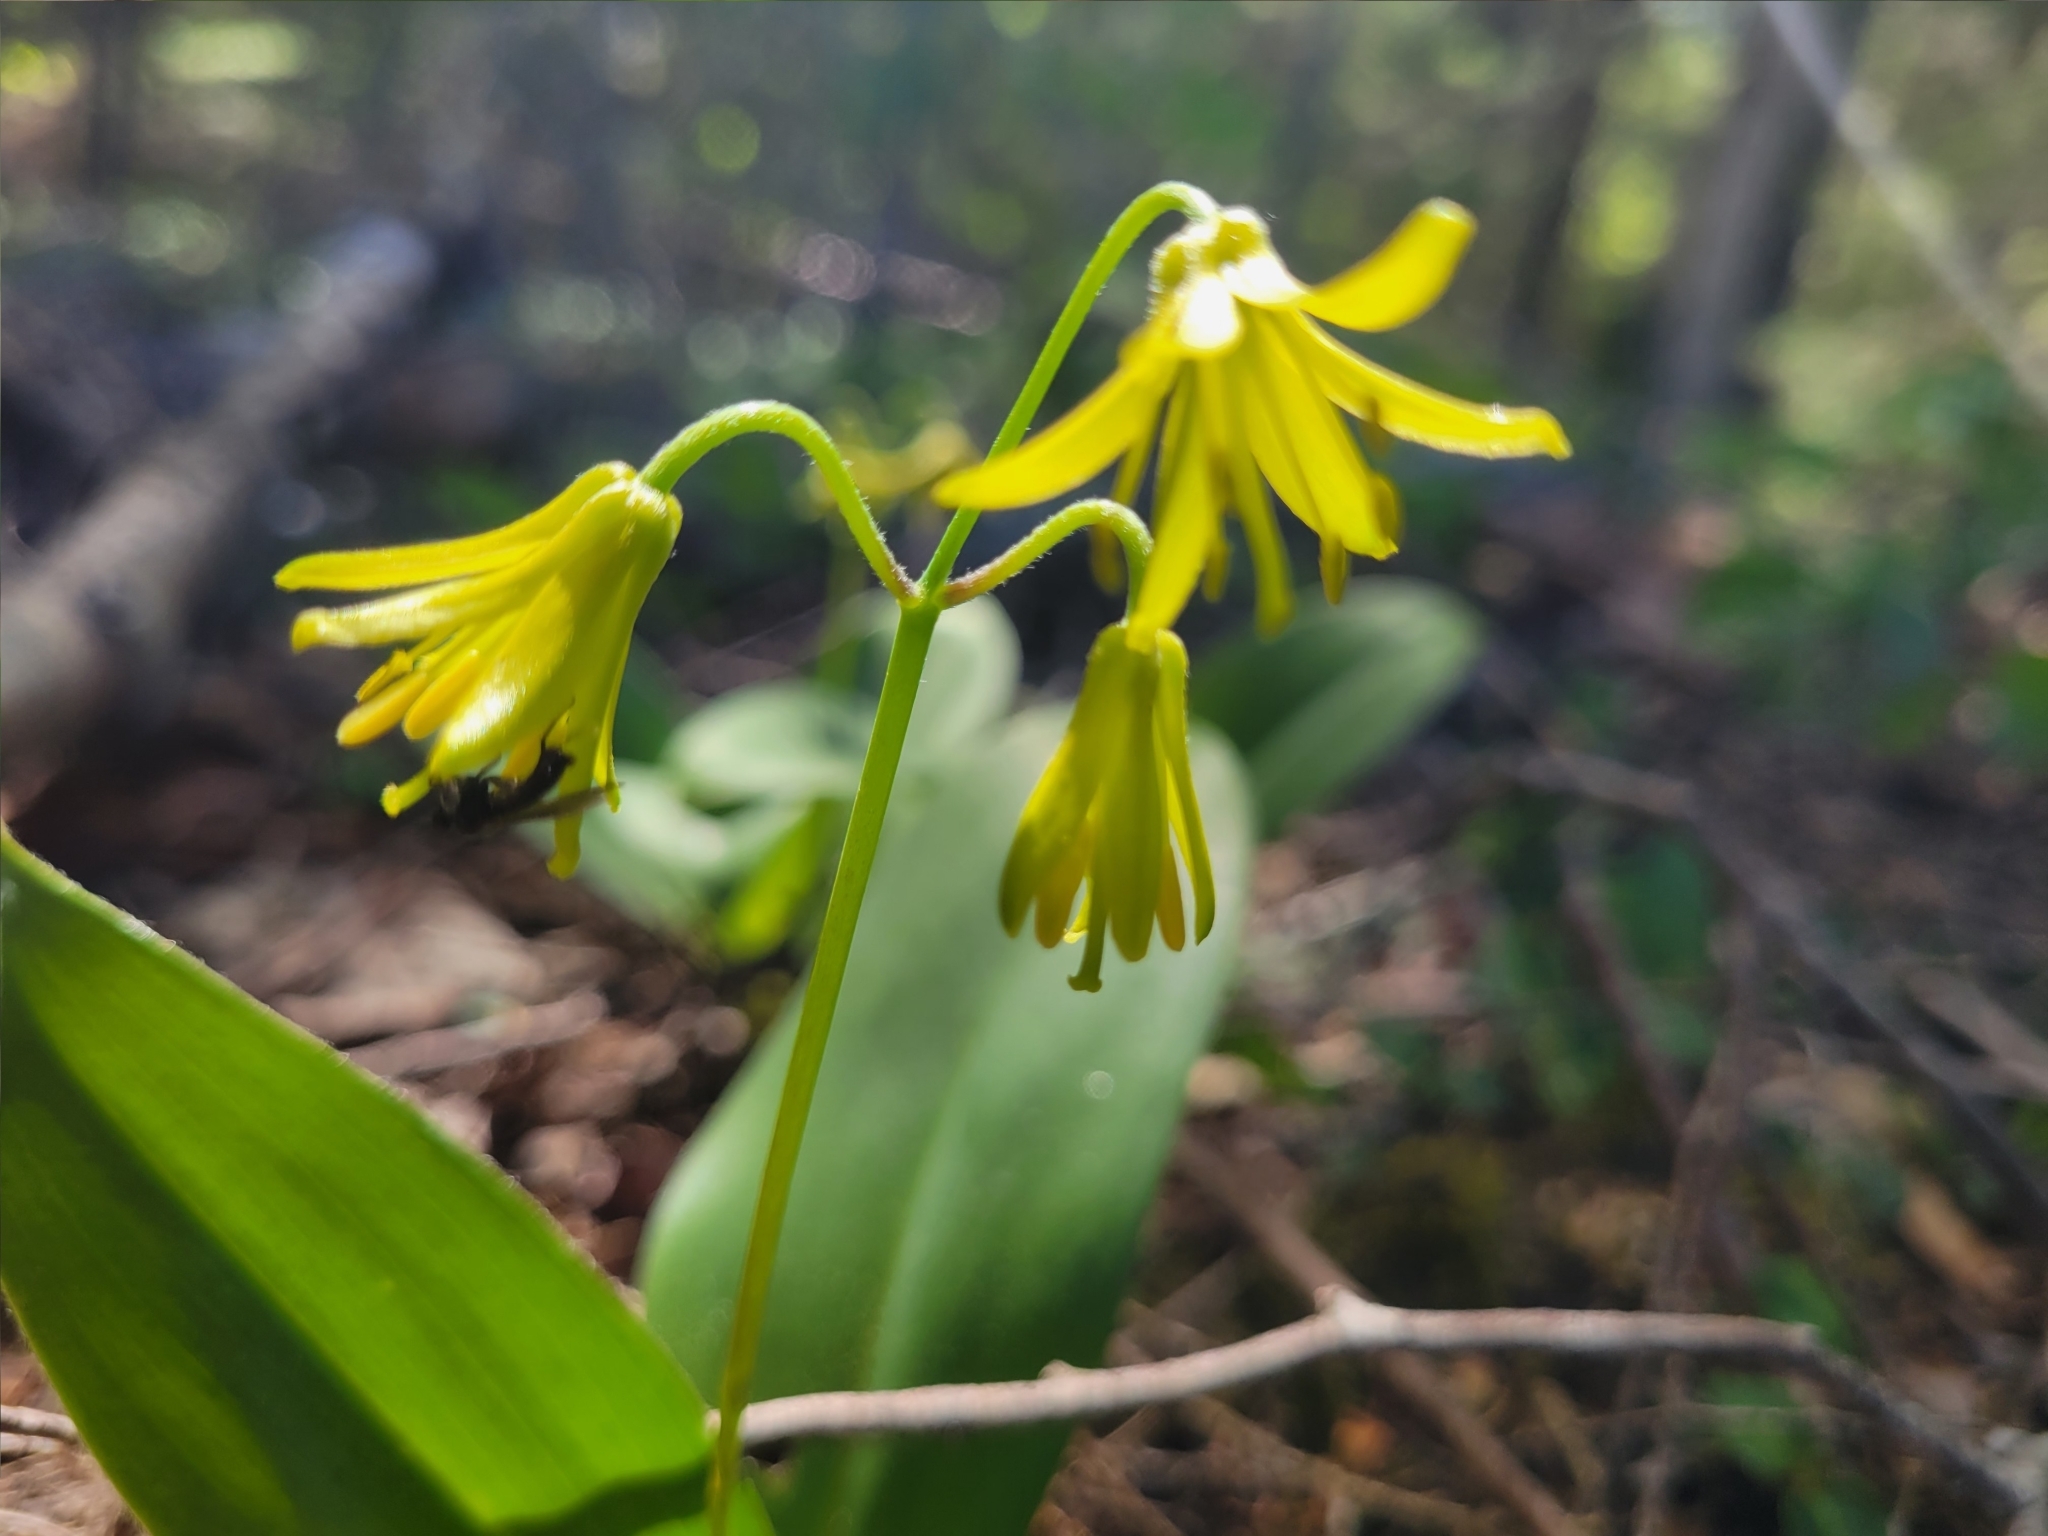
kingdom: Plantae
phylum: Tracheophyta
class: Liliopsida
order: Liliales
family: Liliaceae
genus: Clintonia
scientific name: Clintonia borealis
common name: Yellow clintonia
